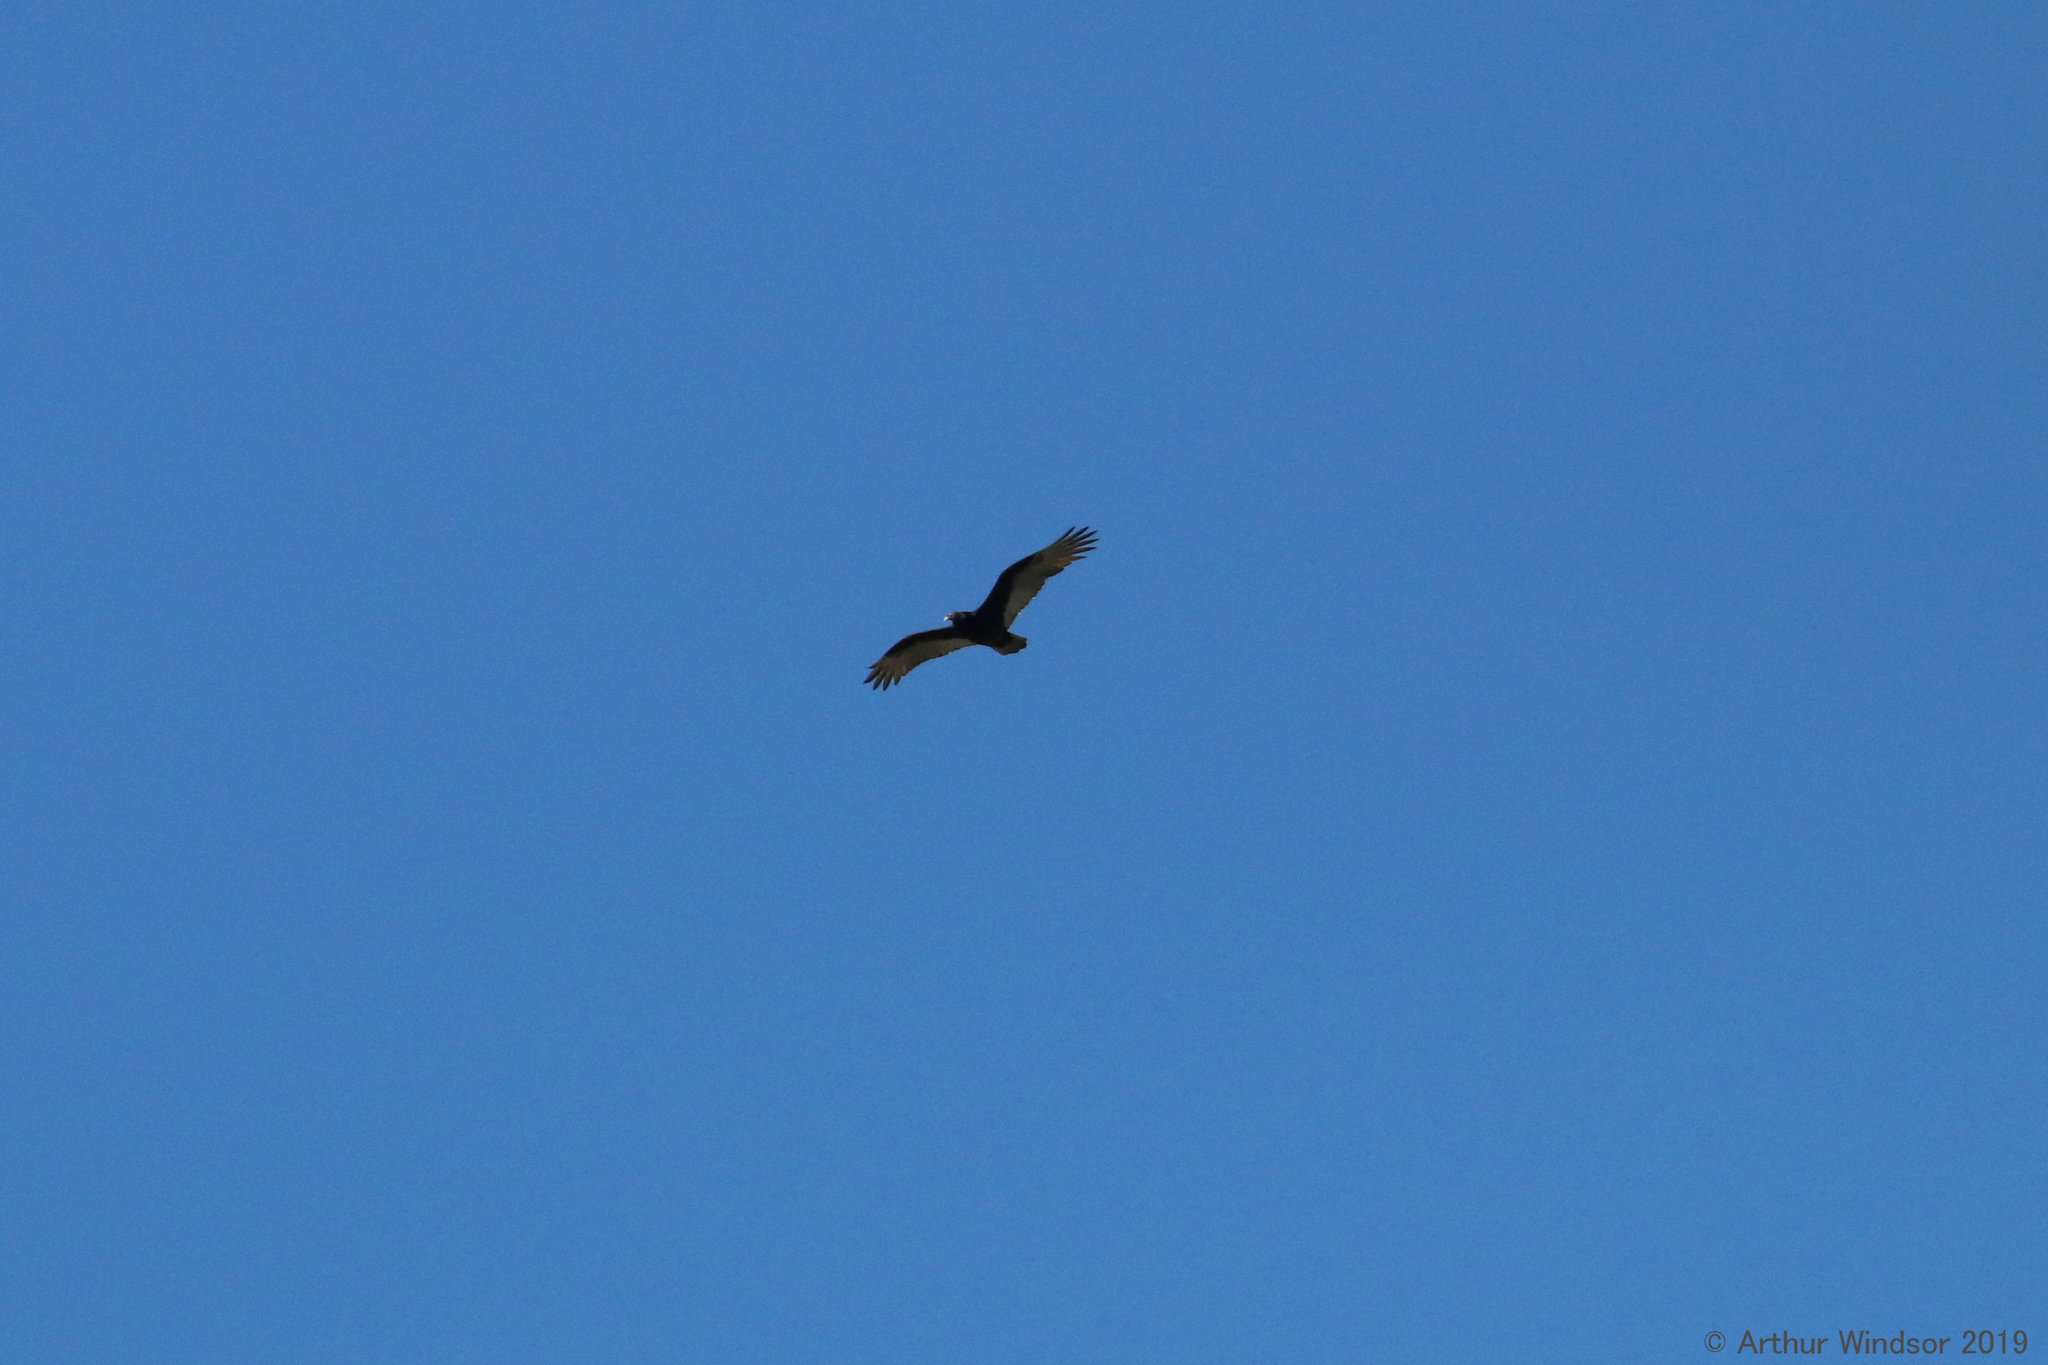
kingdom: Animalia
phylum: Chordata
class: Aves
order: Accipitriformes
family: Cathartidae
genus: Cathartes
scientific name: Cathartes aura
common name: Turkey vulture
